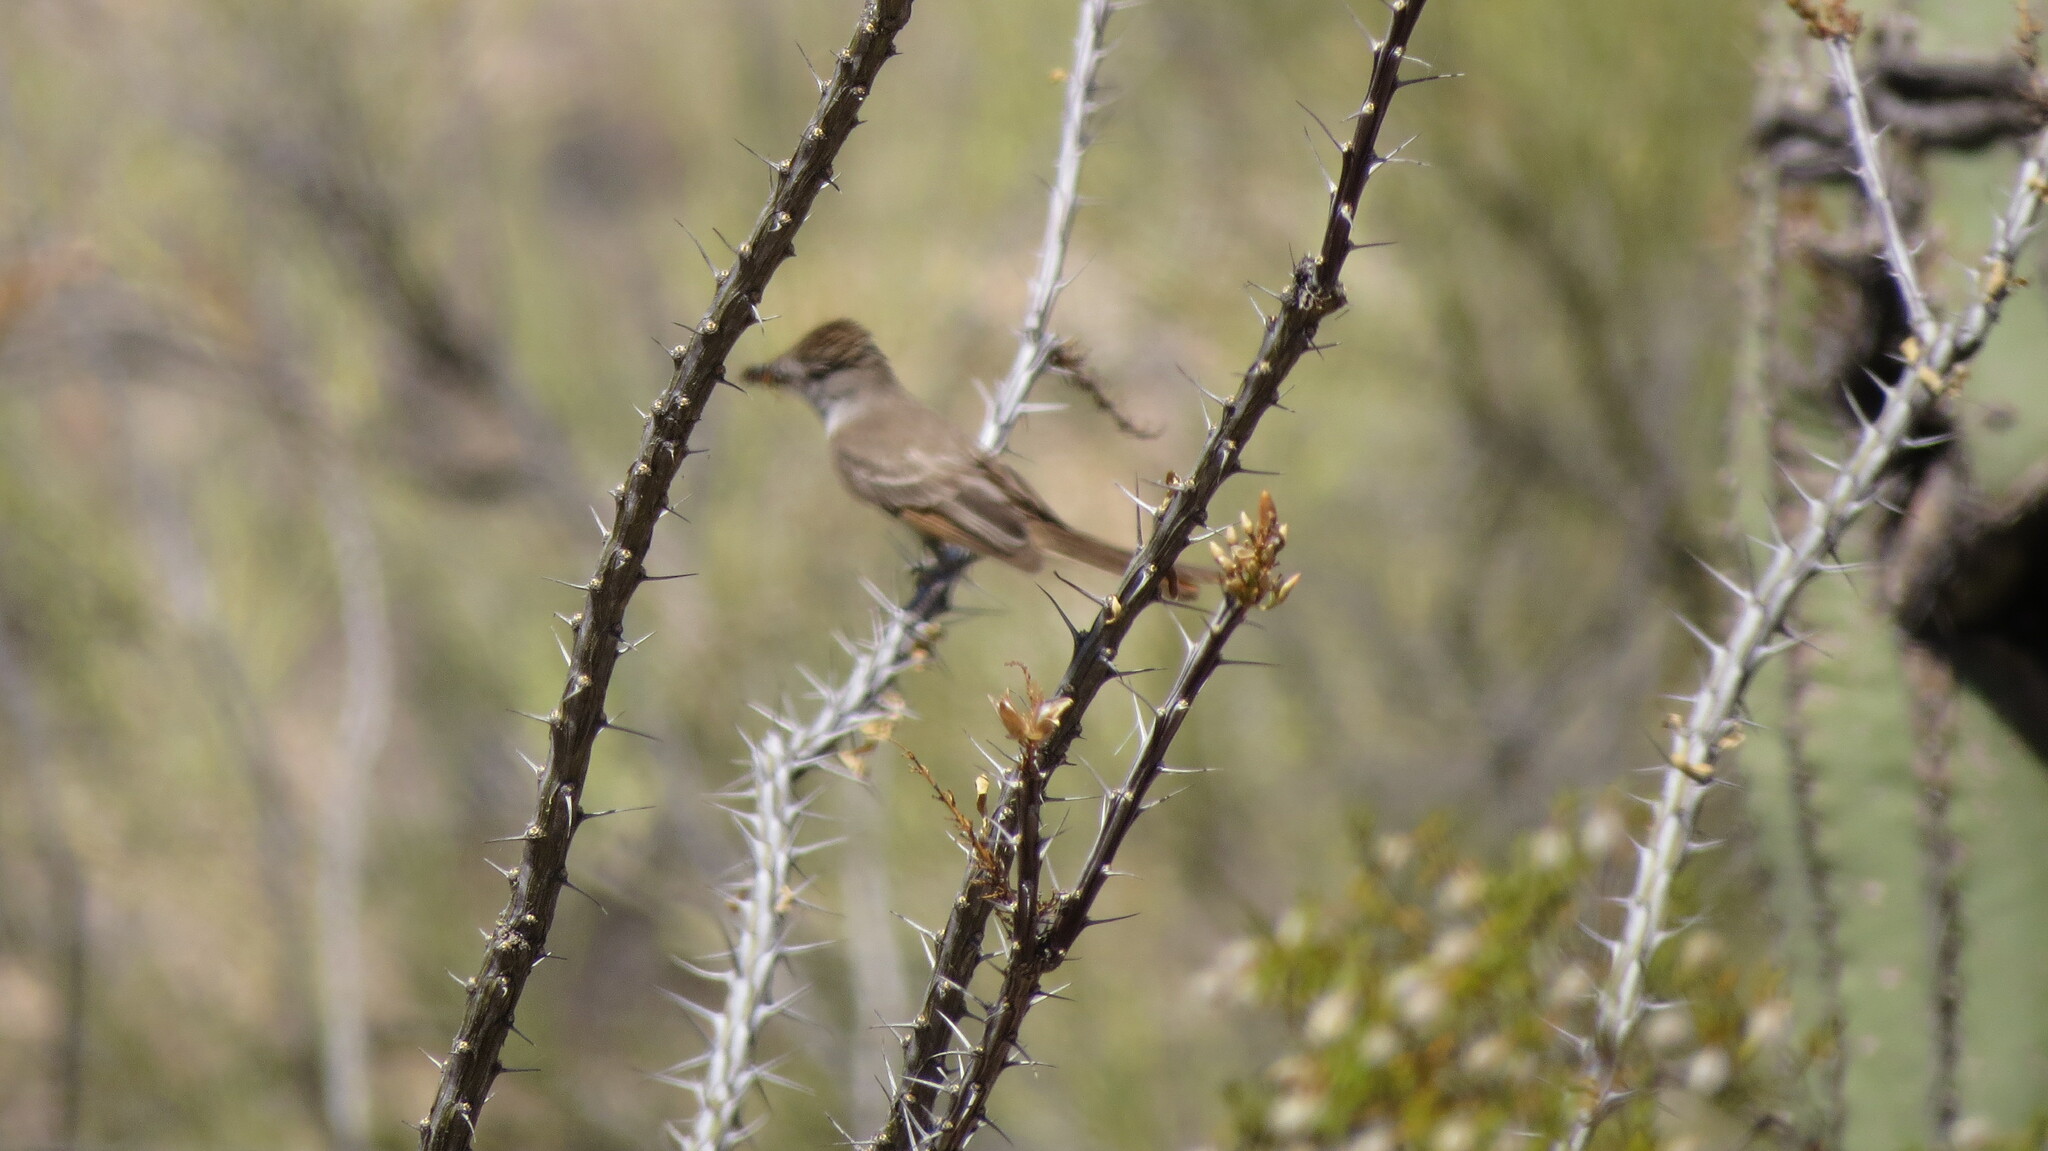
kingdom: Animalia
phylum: Chordata
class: Aves
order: Passeriformes
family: Tyrannidae
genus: Myiarchus
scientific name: Myiarchus cinerascens
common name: Ash-throated flycatcher
